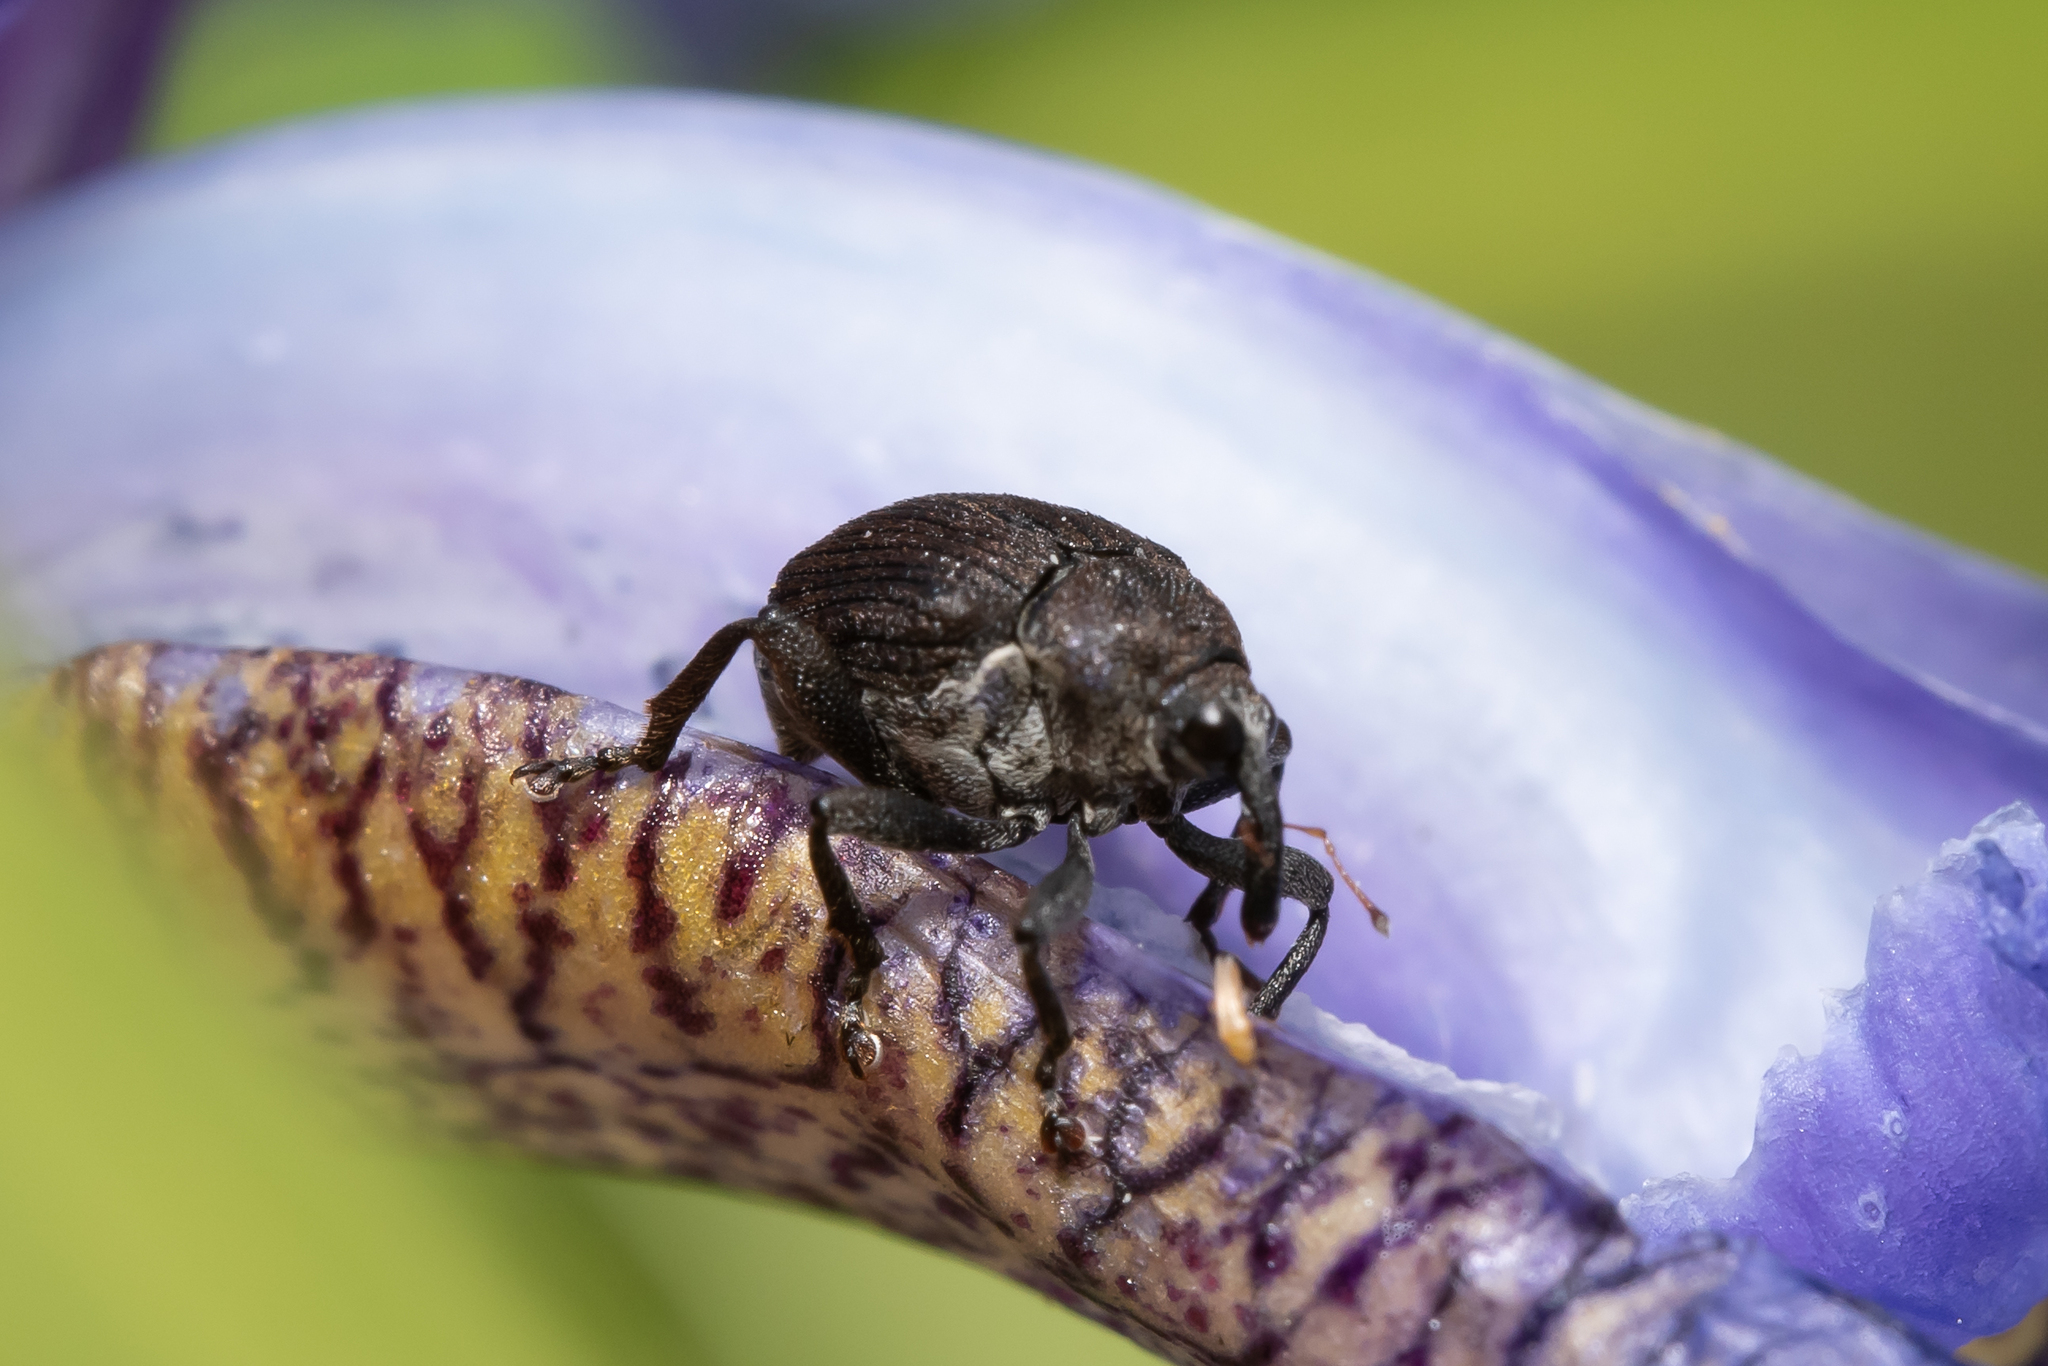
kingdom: Animalia
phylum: Arthropoda
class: Insecta
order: Coleoptera
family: Curculionidae
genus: Mononychus
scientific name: Mononychus punctumalbum
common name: Iris weevil
